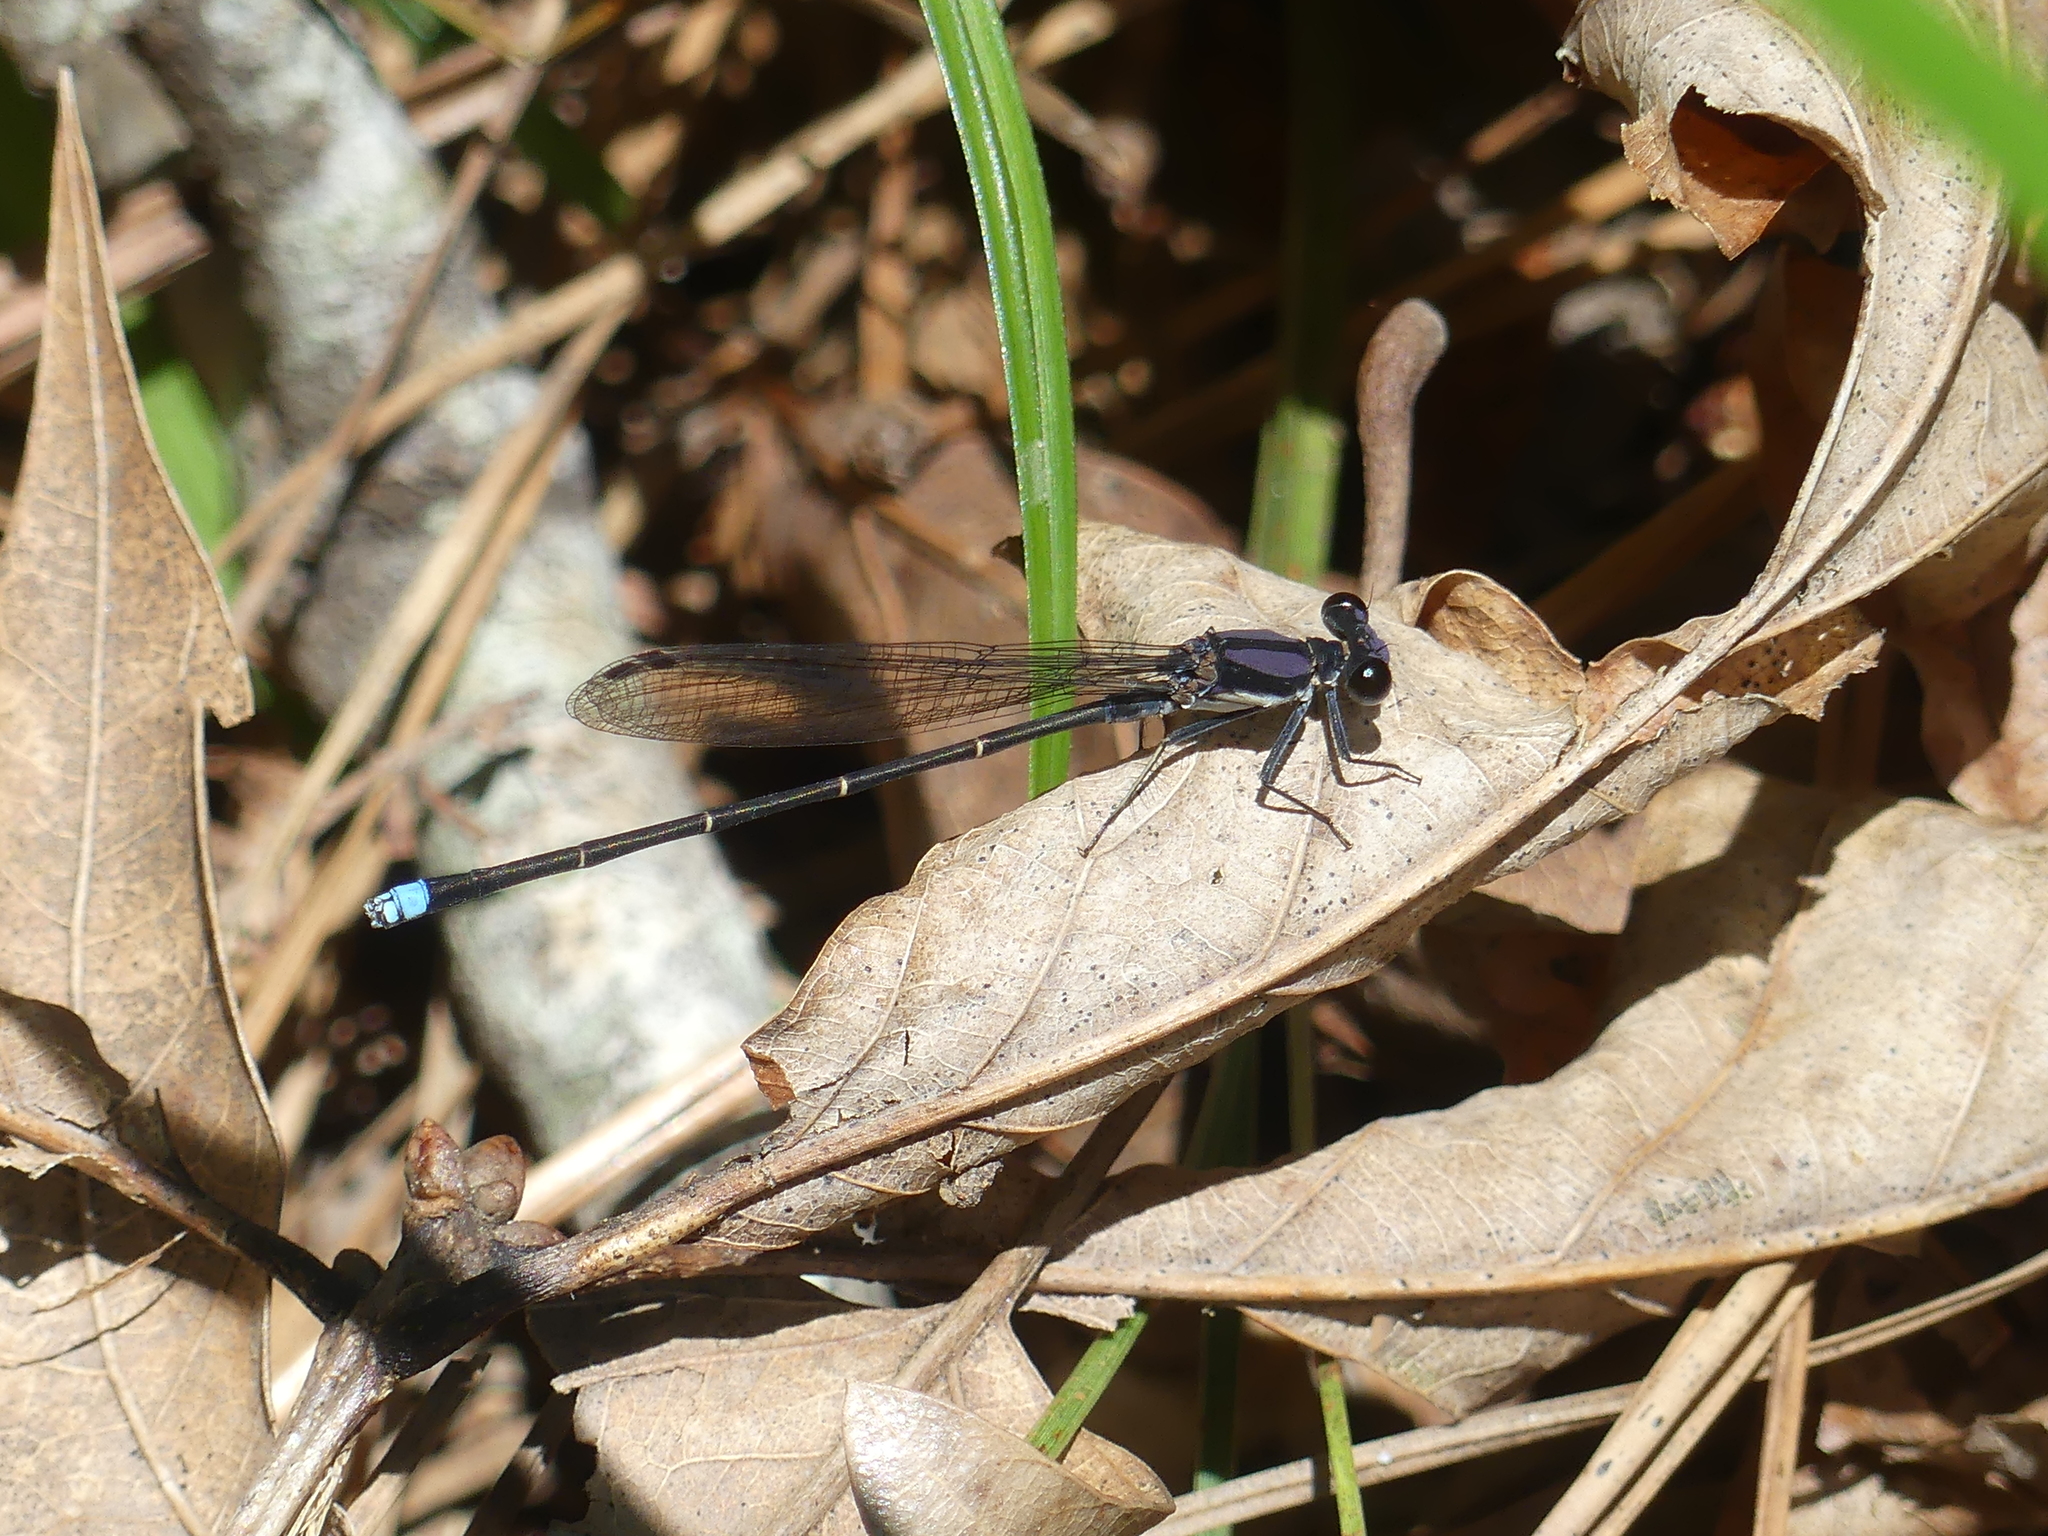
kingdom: Animalia
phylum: Arthropoda
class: Insecta
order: Odonata
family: Coenagrionidae
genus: Argia
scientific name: Argia tibialis
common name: Blue-tipped dancer
